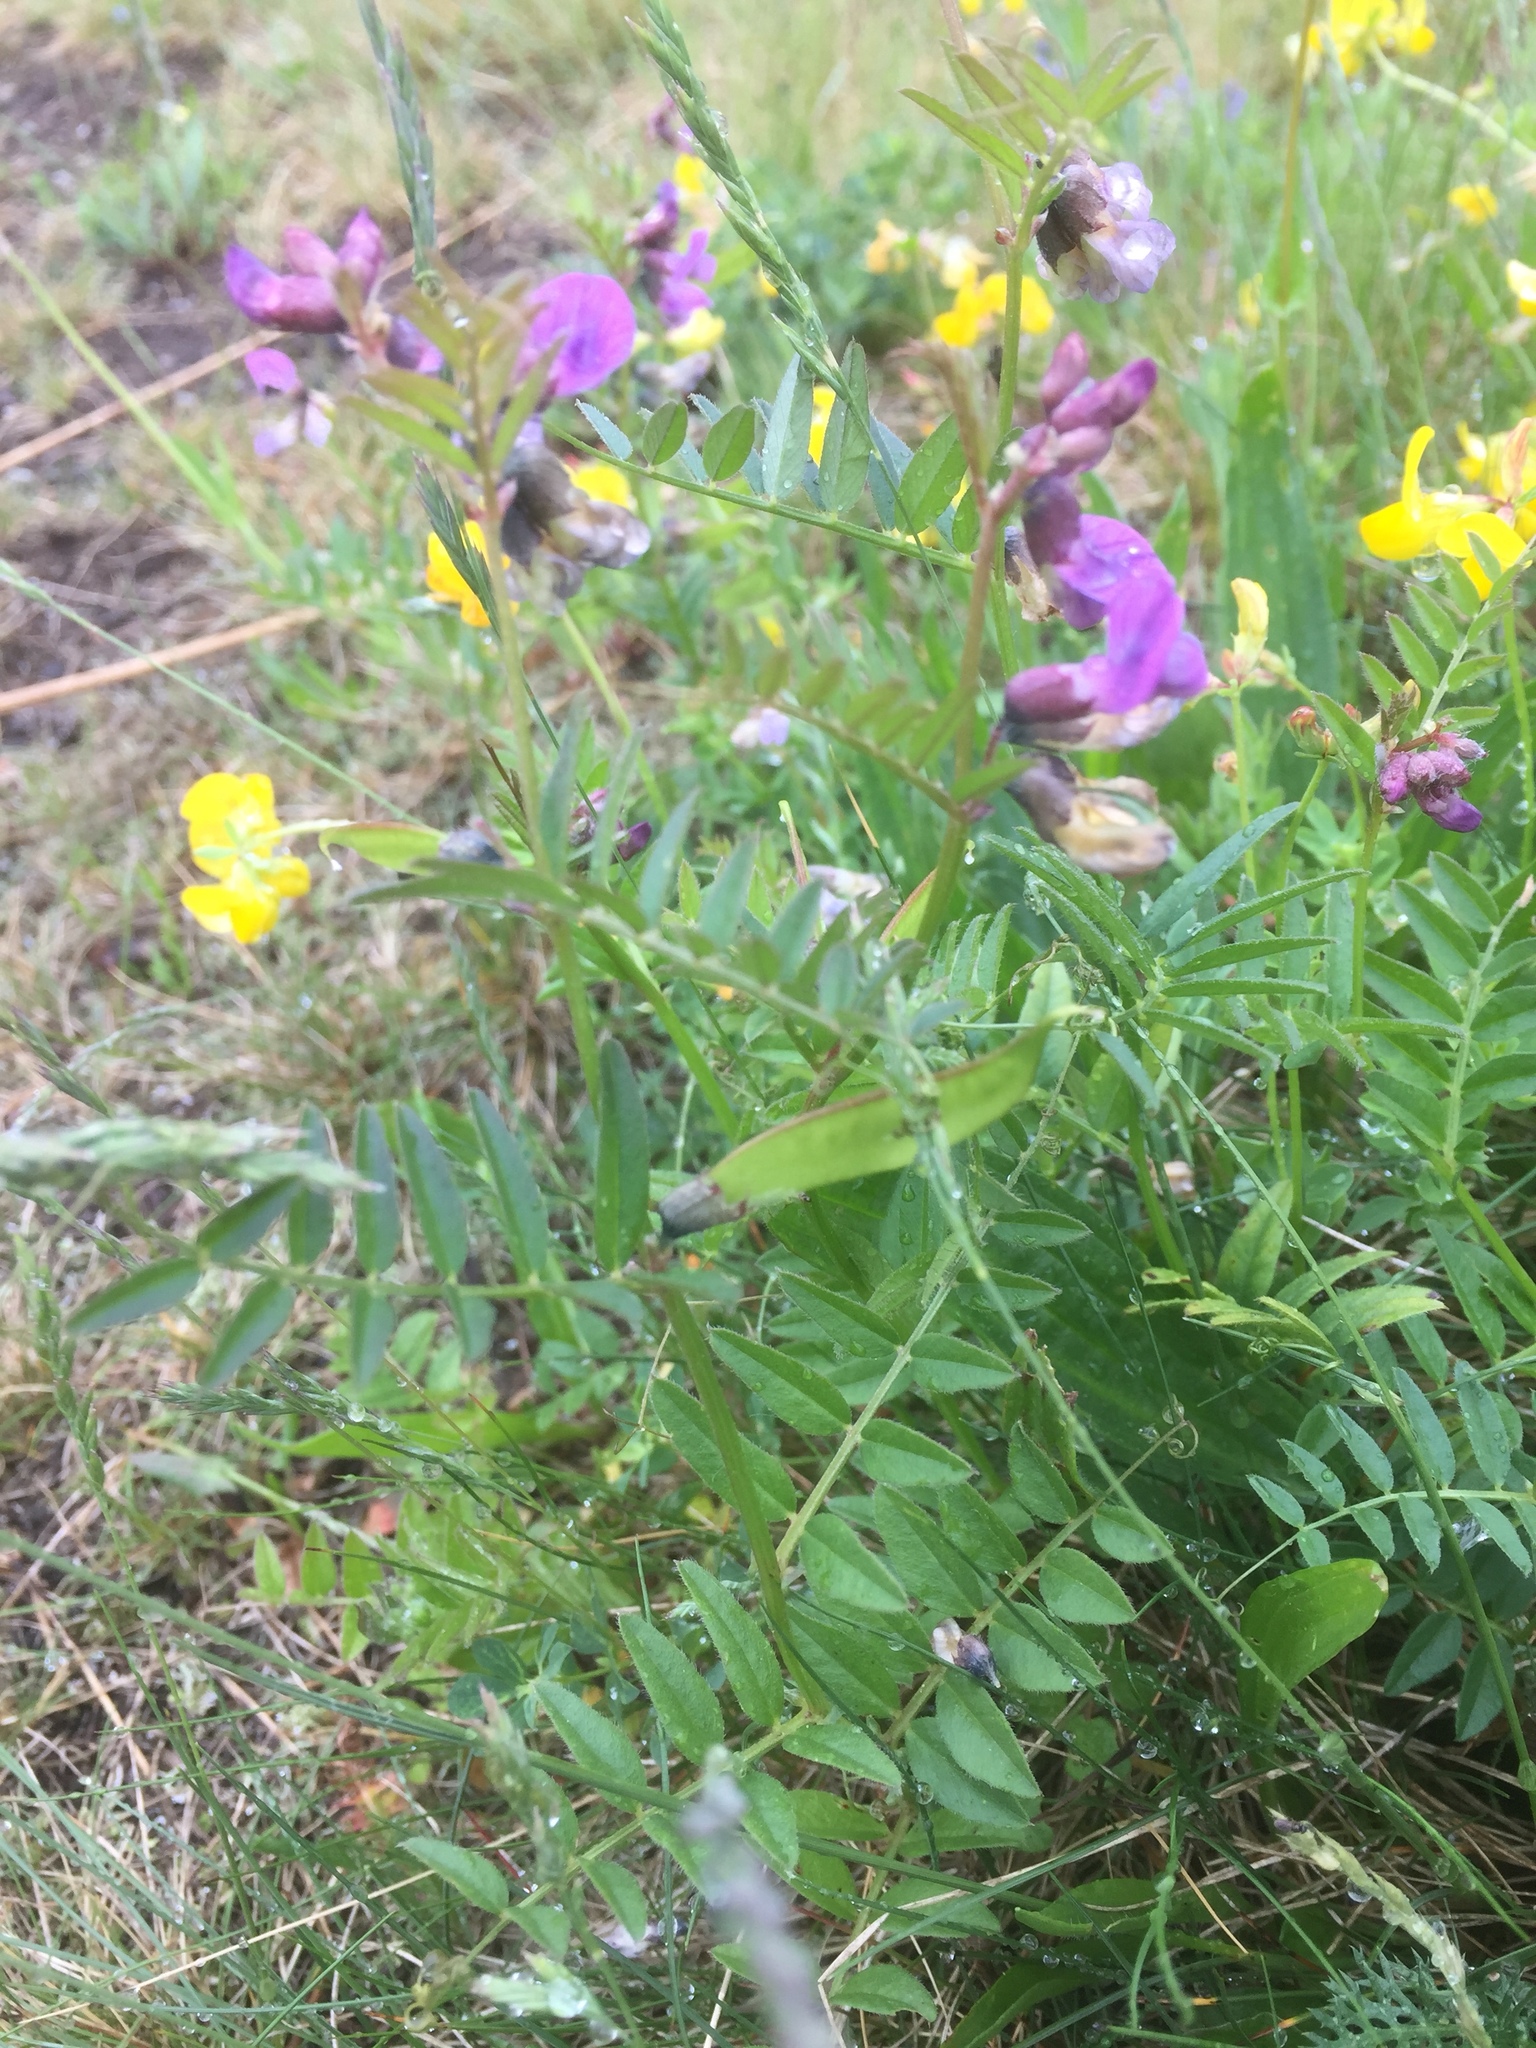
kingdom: Plantae
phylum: Tracheophyta
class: Magnoliopsida
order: Fabales
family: Fabaceae
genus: Vicia
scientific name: Vicia sepium
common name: Bush vetch
